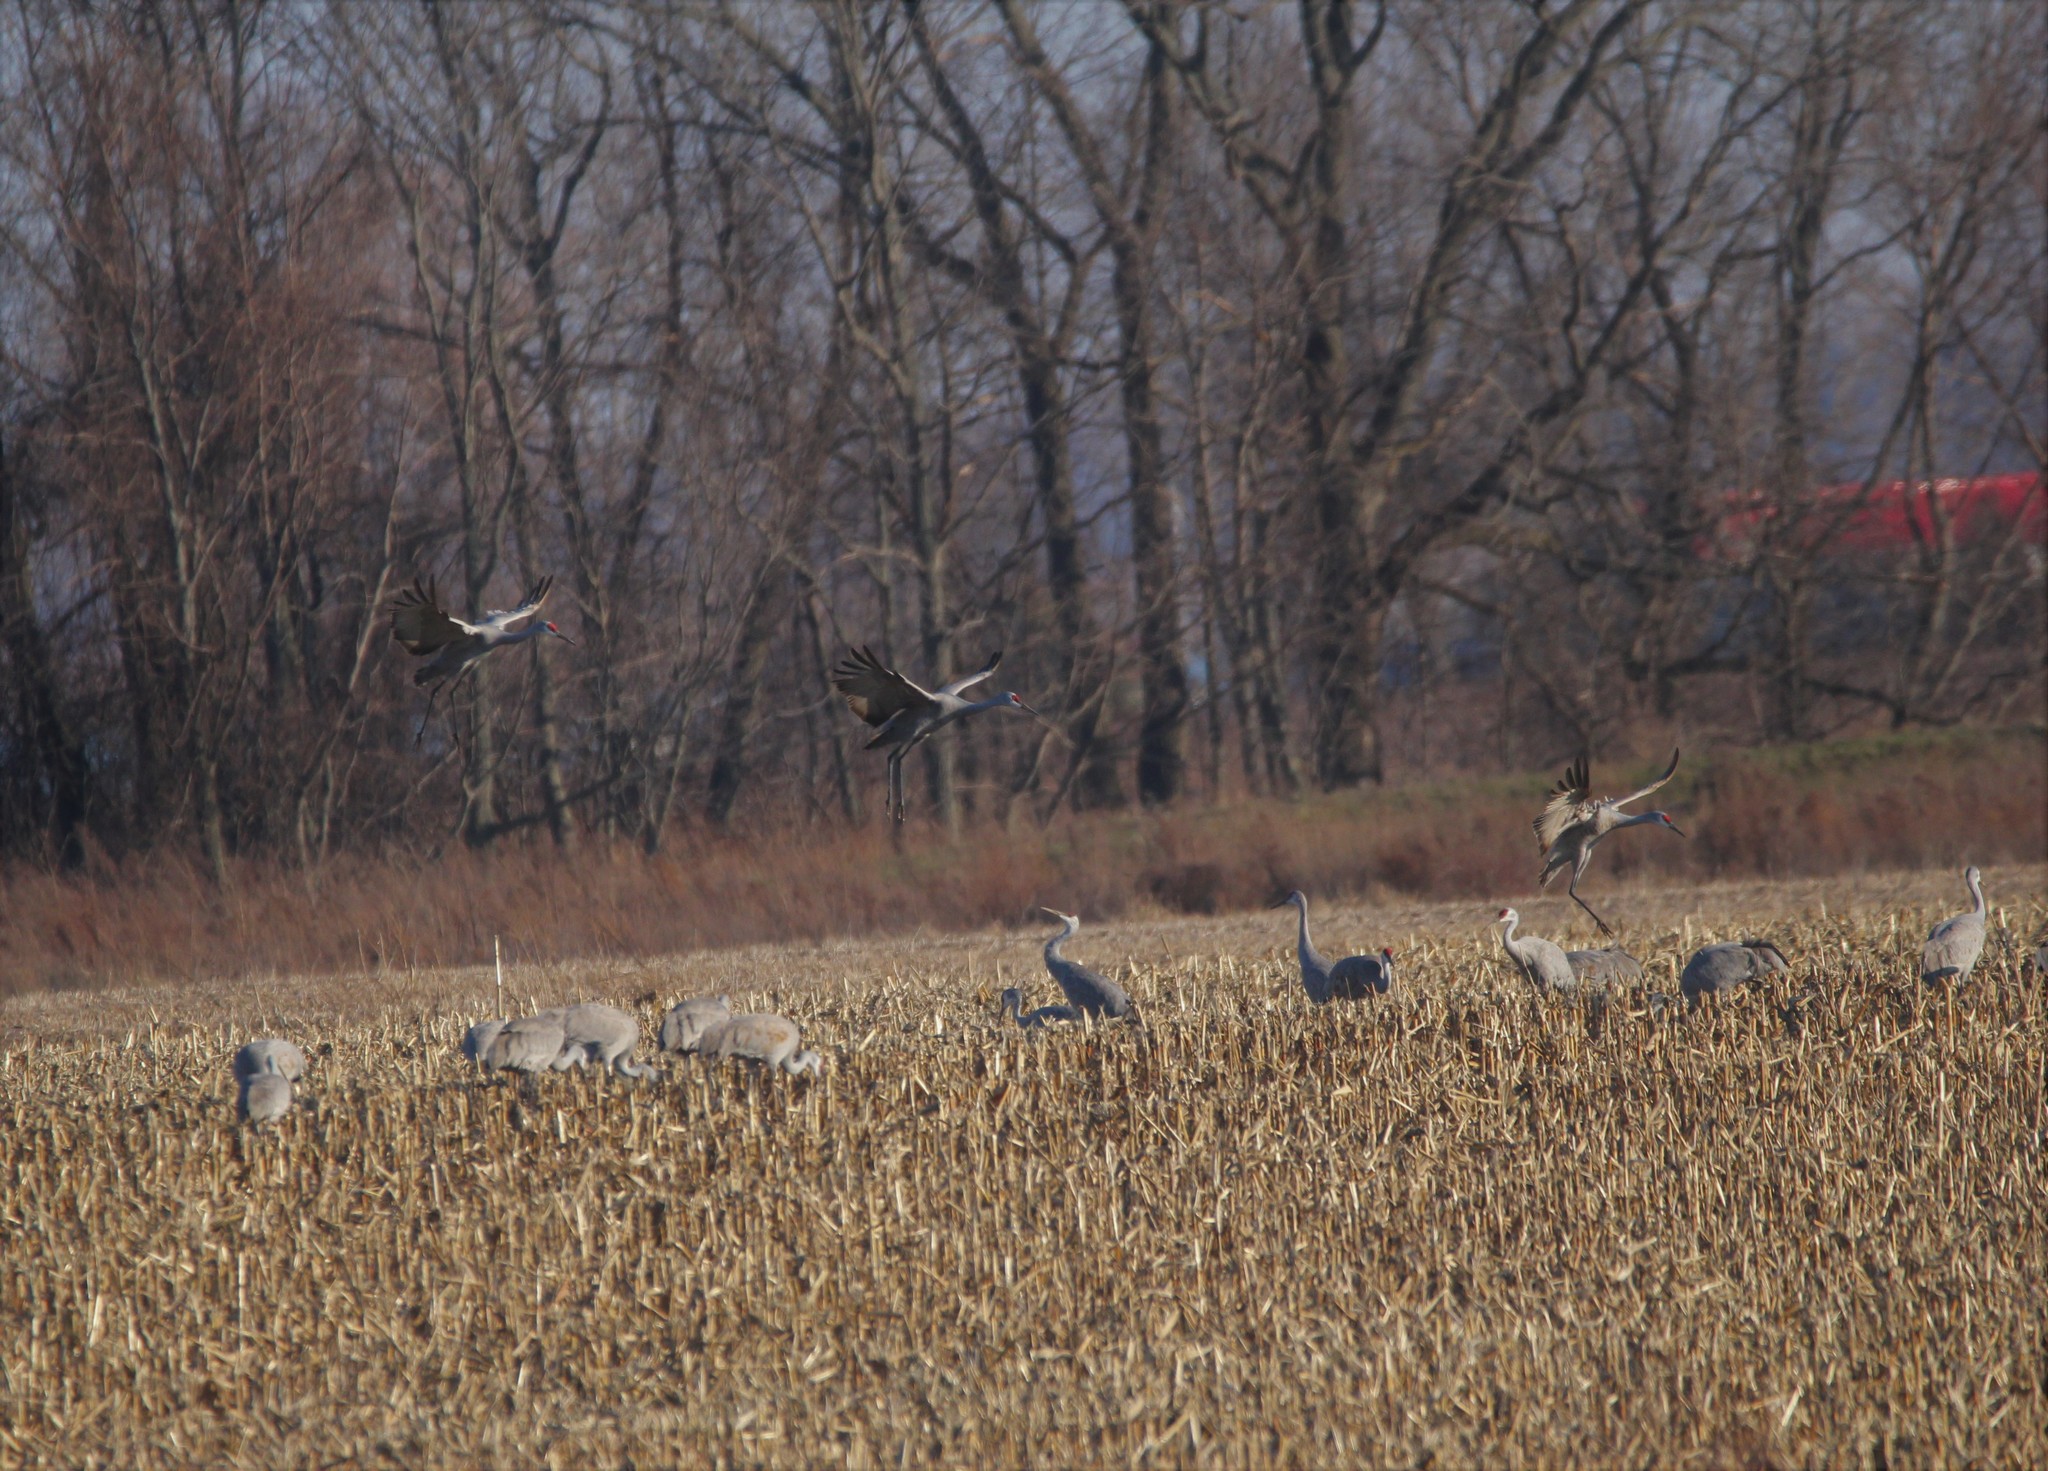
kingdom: Animalia
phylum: Chordata
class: Aves
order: Gruiformes
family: Gruidae
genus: Grus
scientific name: Grus canadensis
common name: Sandhill crane
